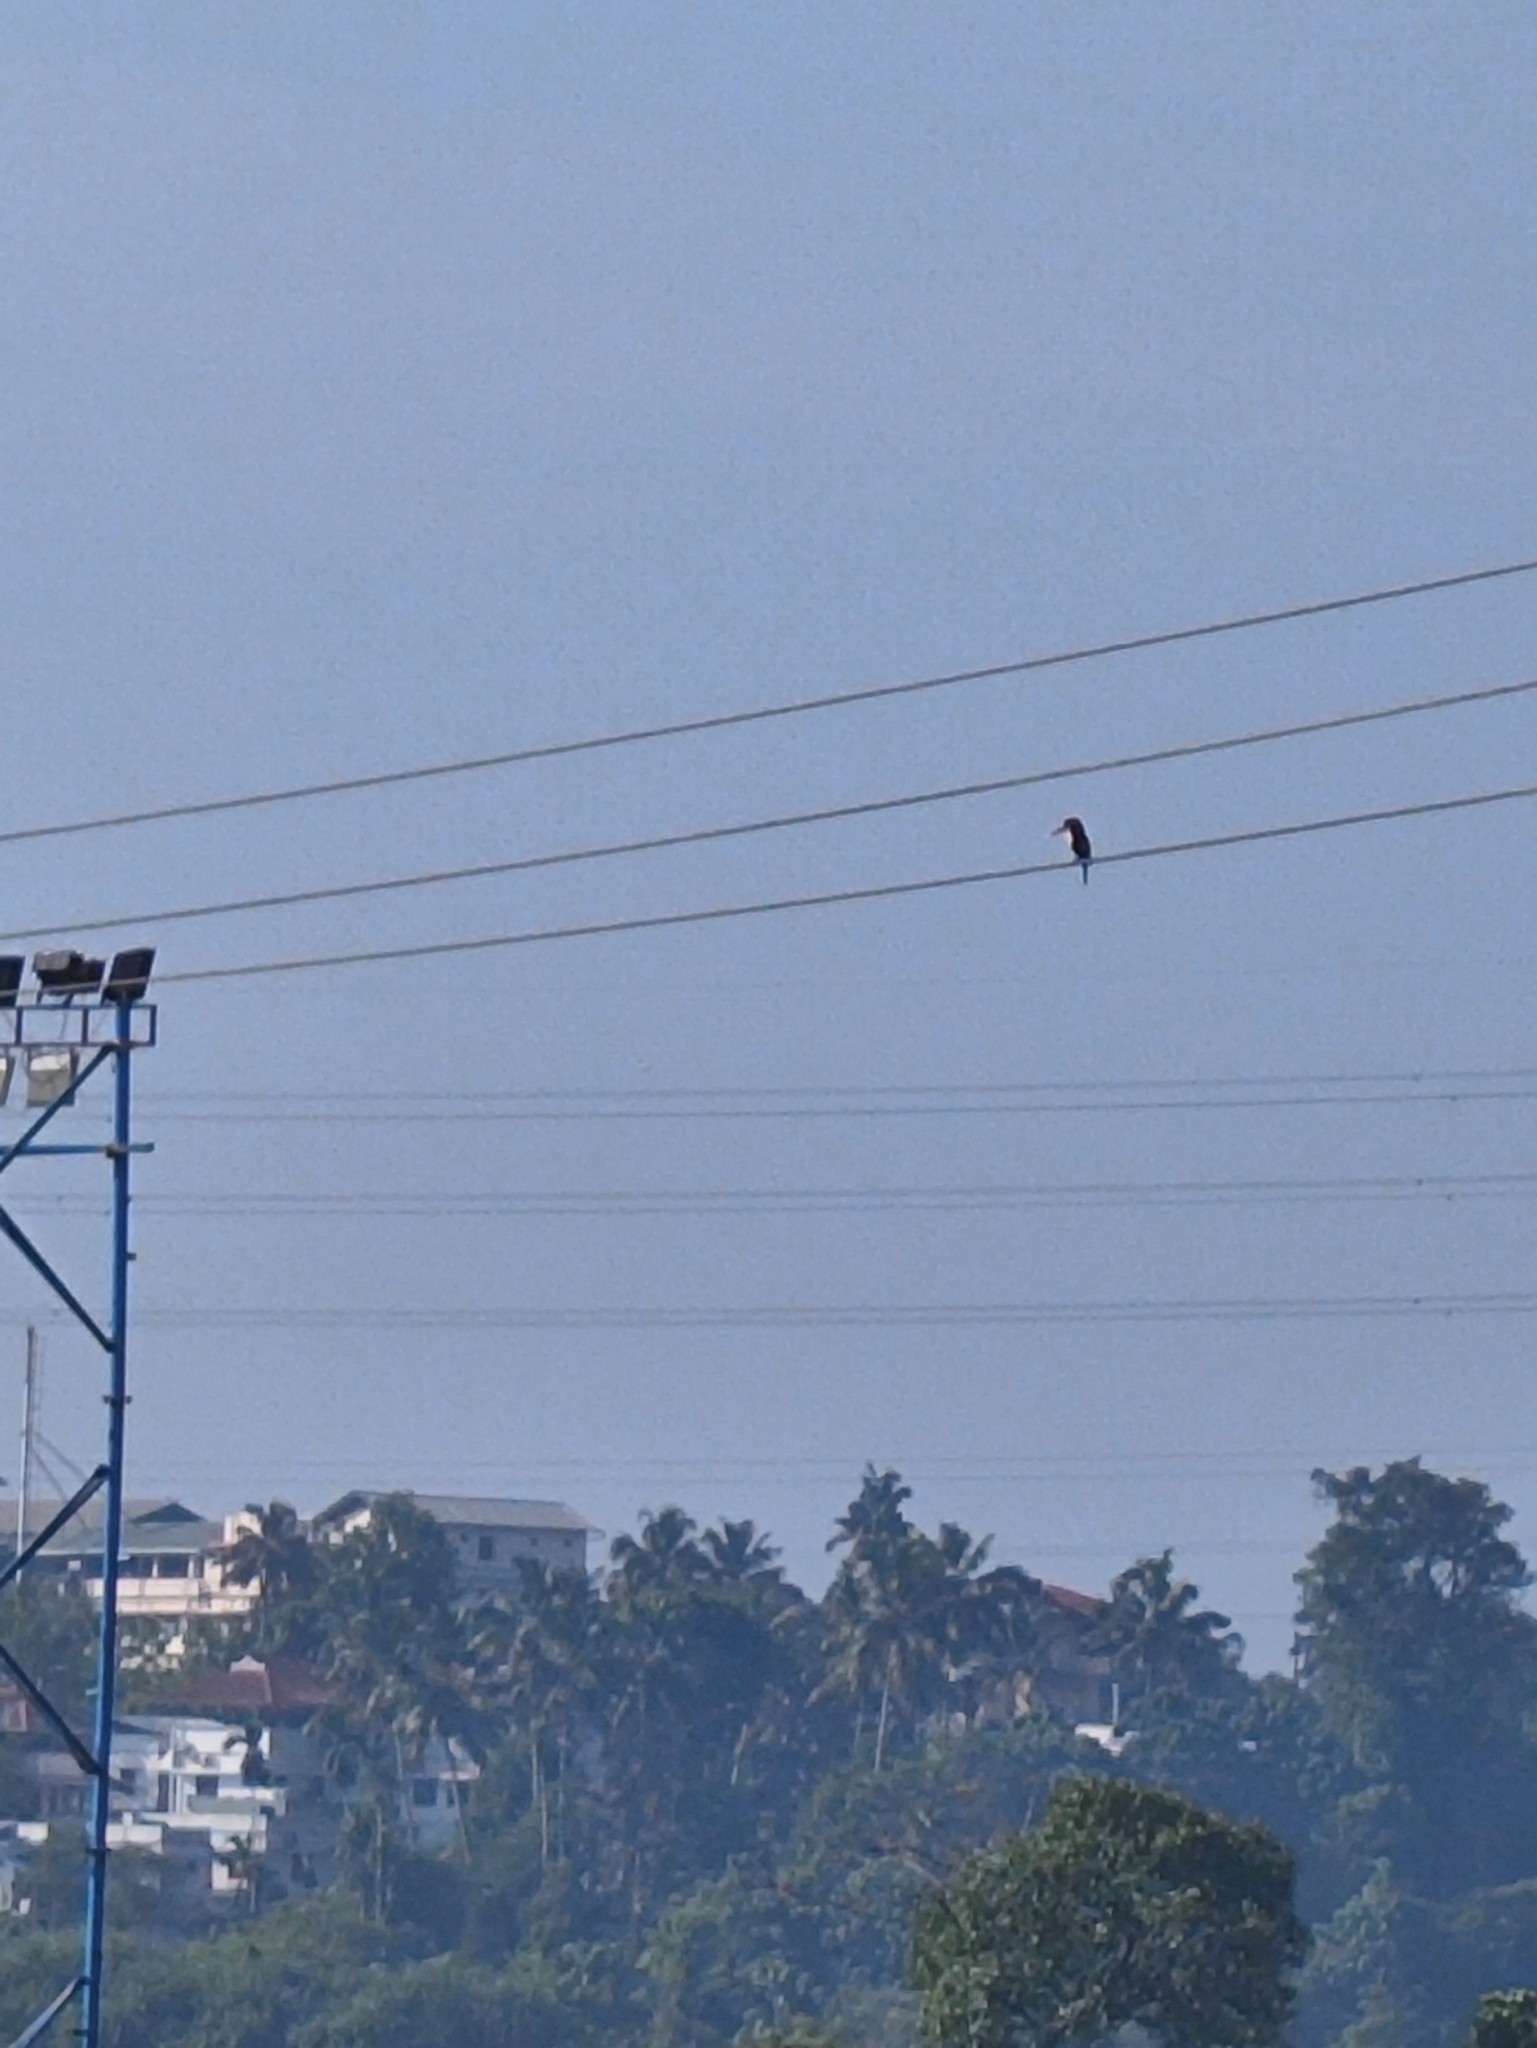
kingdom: Animalia
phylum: Chordata
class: Aves
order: Coraciiformes
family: Alcedinidae
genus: Halcyon
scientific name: Halcyon smyrnensis
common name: White-throated kingfisher
